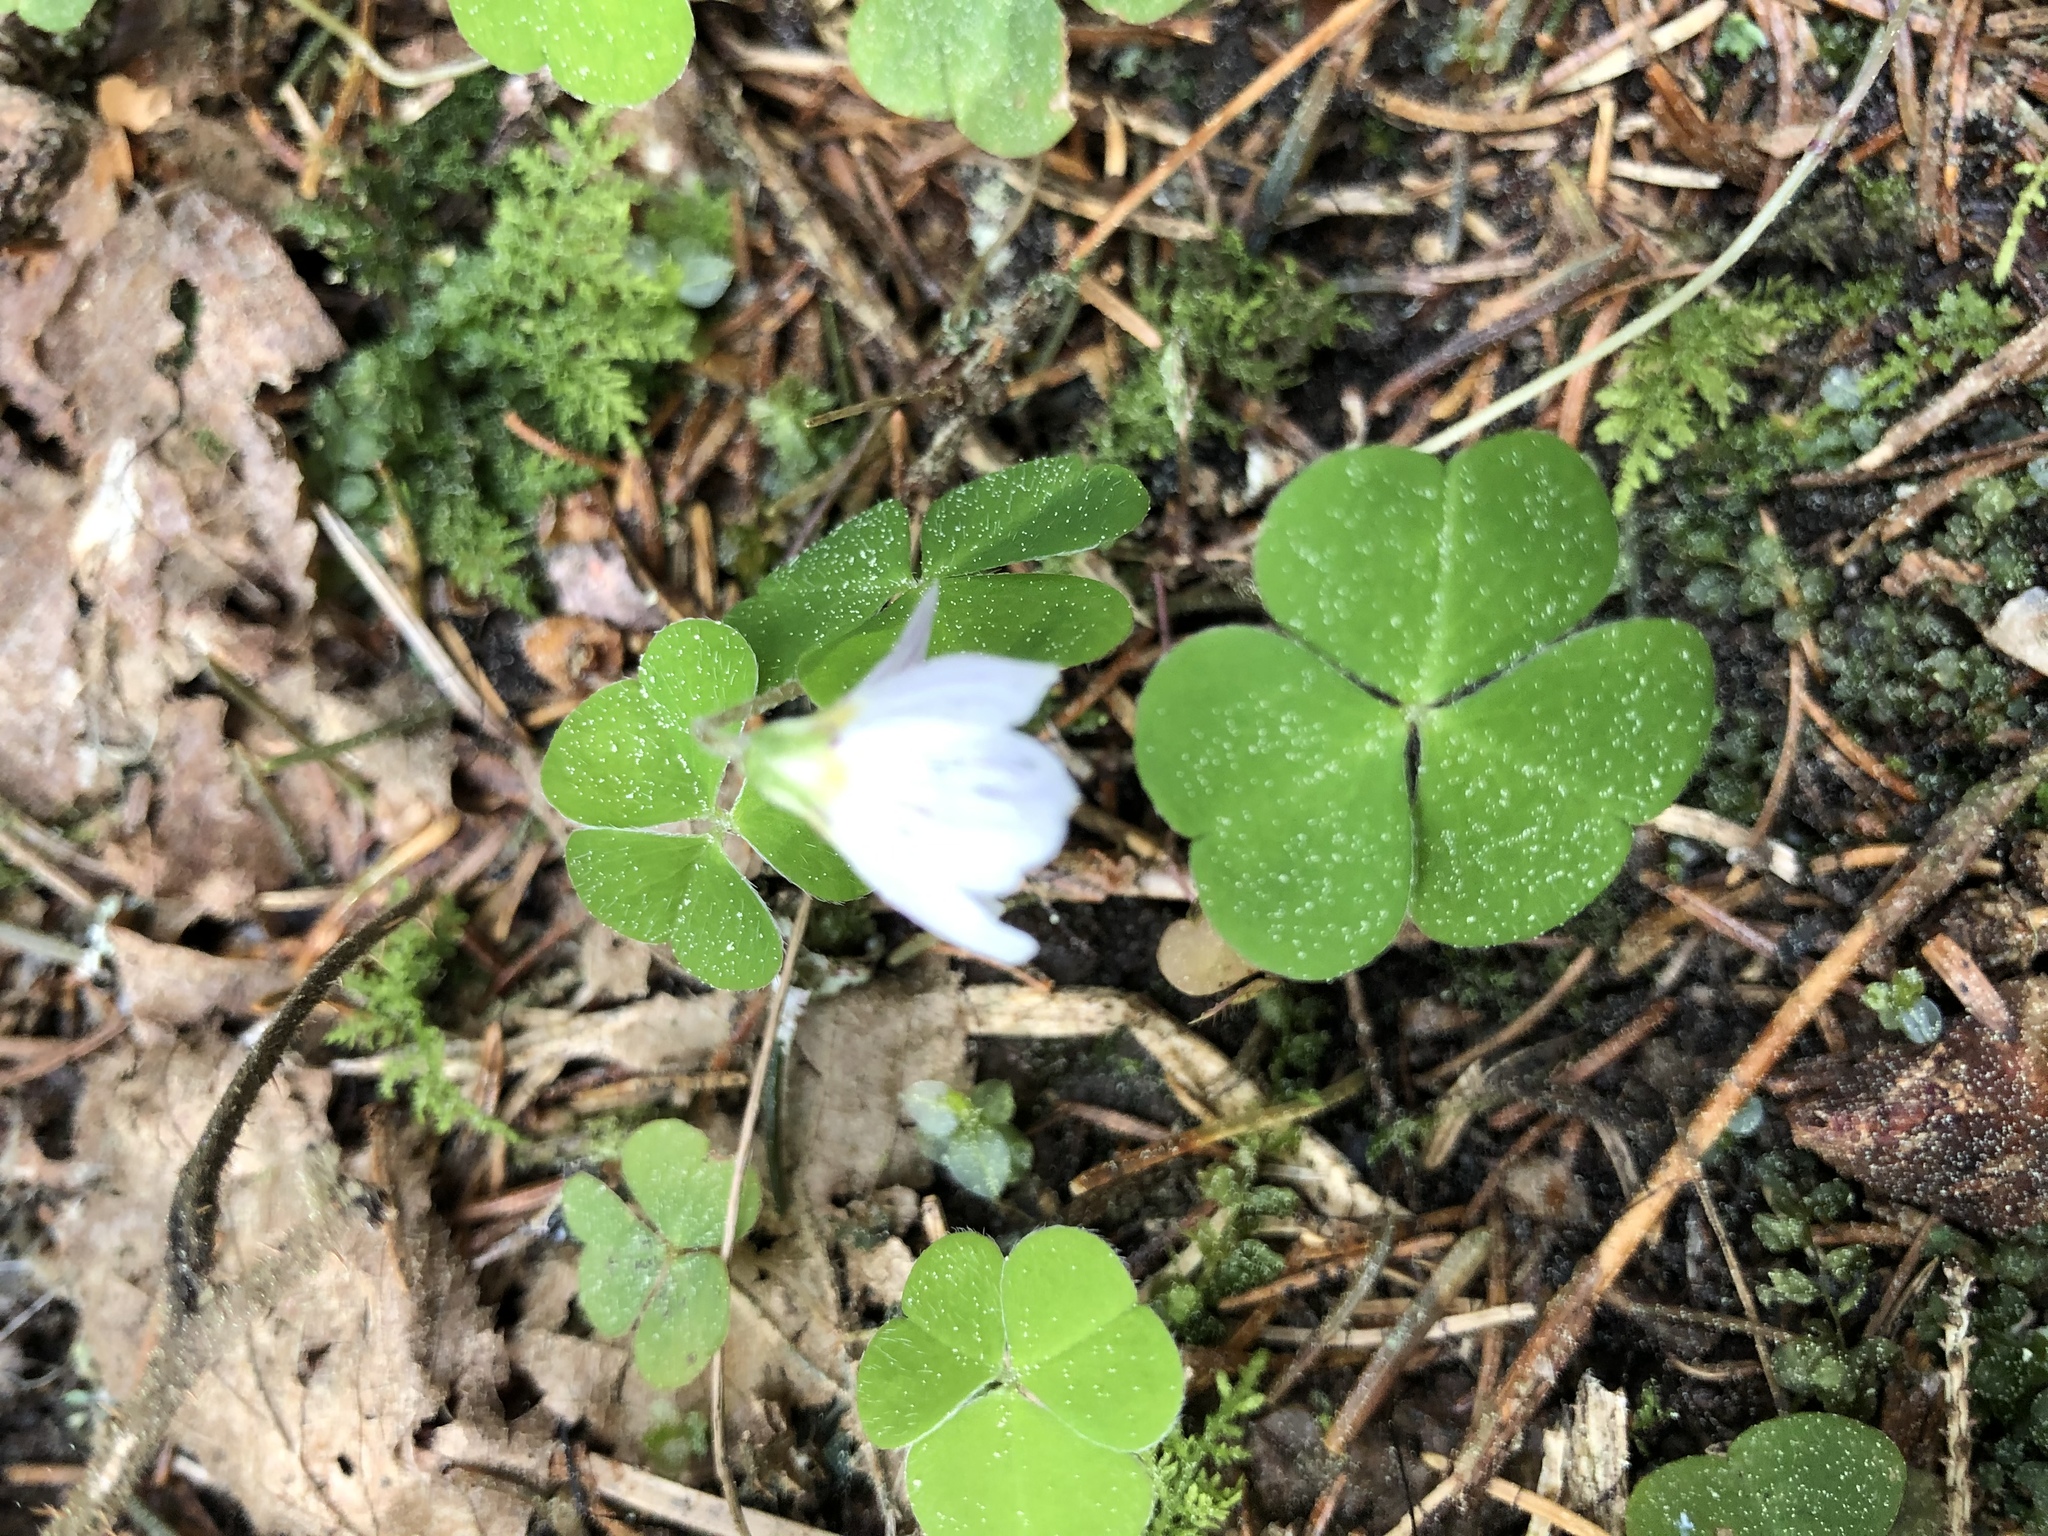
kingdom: Plantae
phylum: Tracheophyta
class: Magnoliopsida
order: Oxalidales
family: Oxalidaceae
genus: Oxalis
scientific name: Oxalis acetosella
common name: Wood-sorrel
